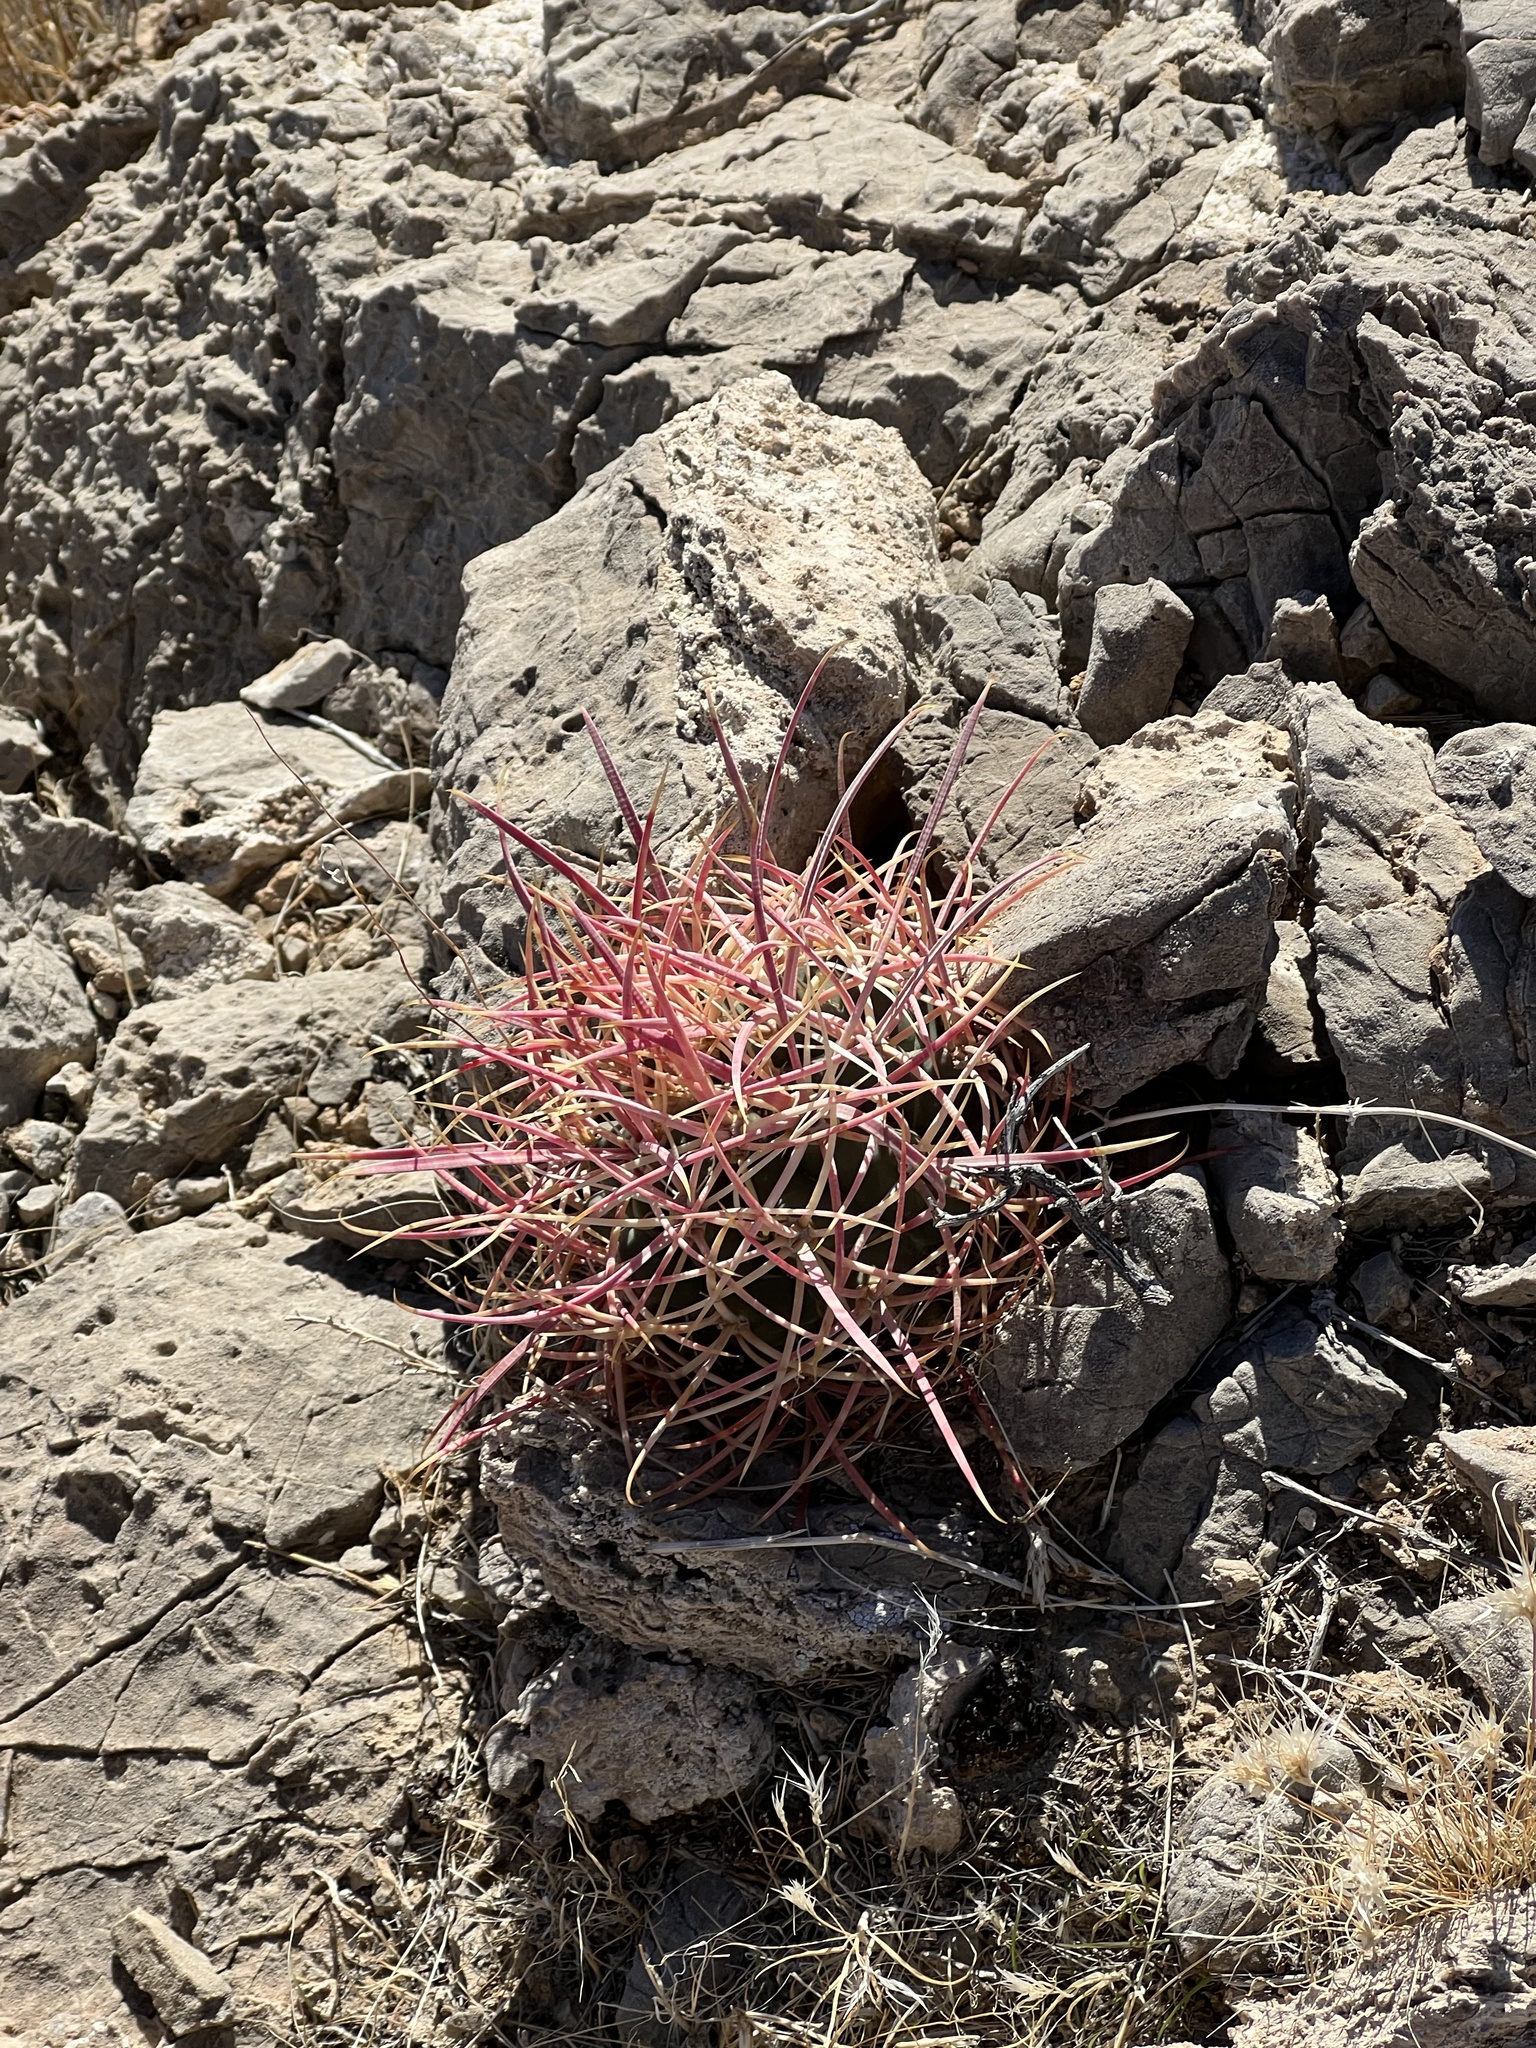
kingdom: Plantae
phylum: Tracheophyta
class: Magnoliopsida
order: Caryophyllales
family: Cactaceae
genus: Ferocactus
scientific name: Ferocactus cylindraceus
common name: California barrel cactus
